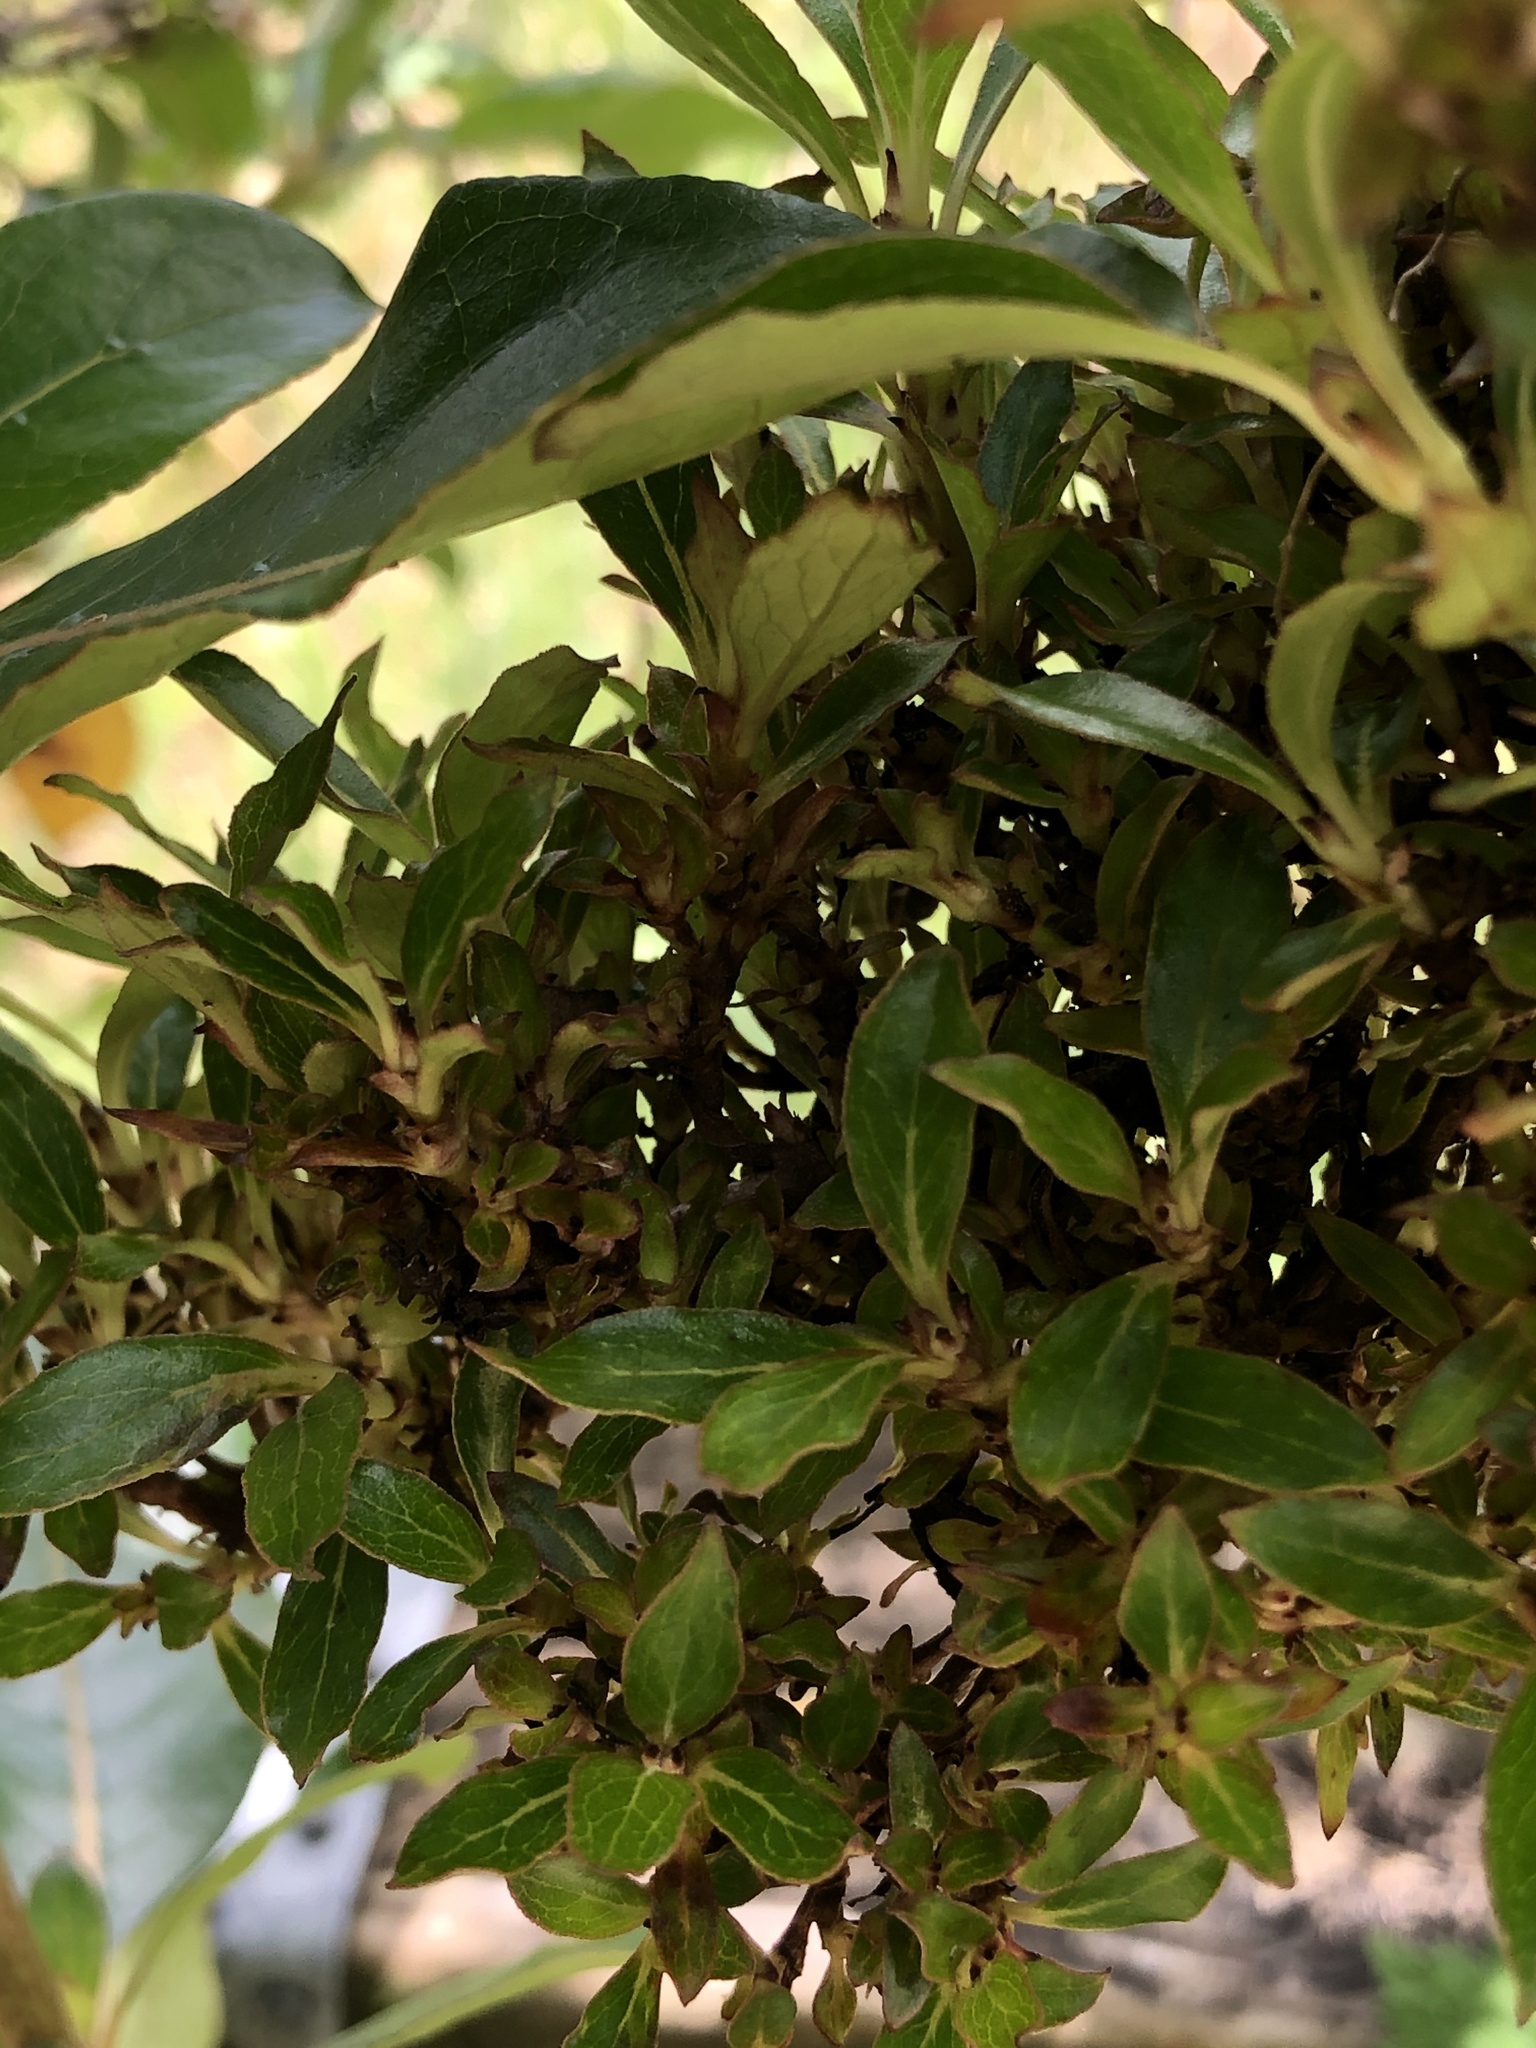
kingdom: Plantae
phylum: Tracheophyta
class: Magnoliopsida
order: Gentianales
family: Rubiaceae
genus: Coprosma
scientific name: Coprosma robusta
